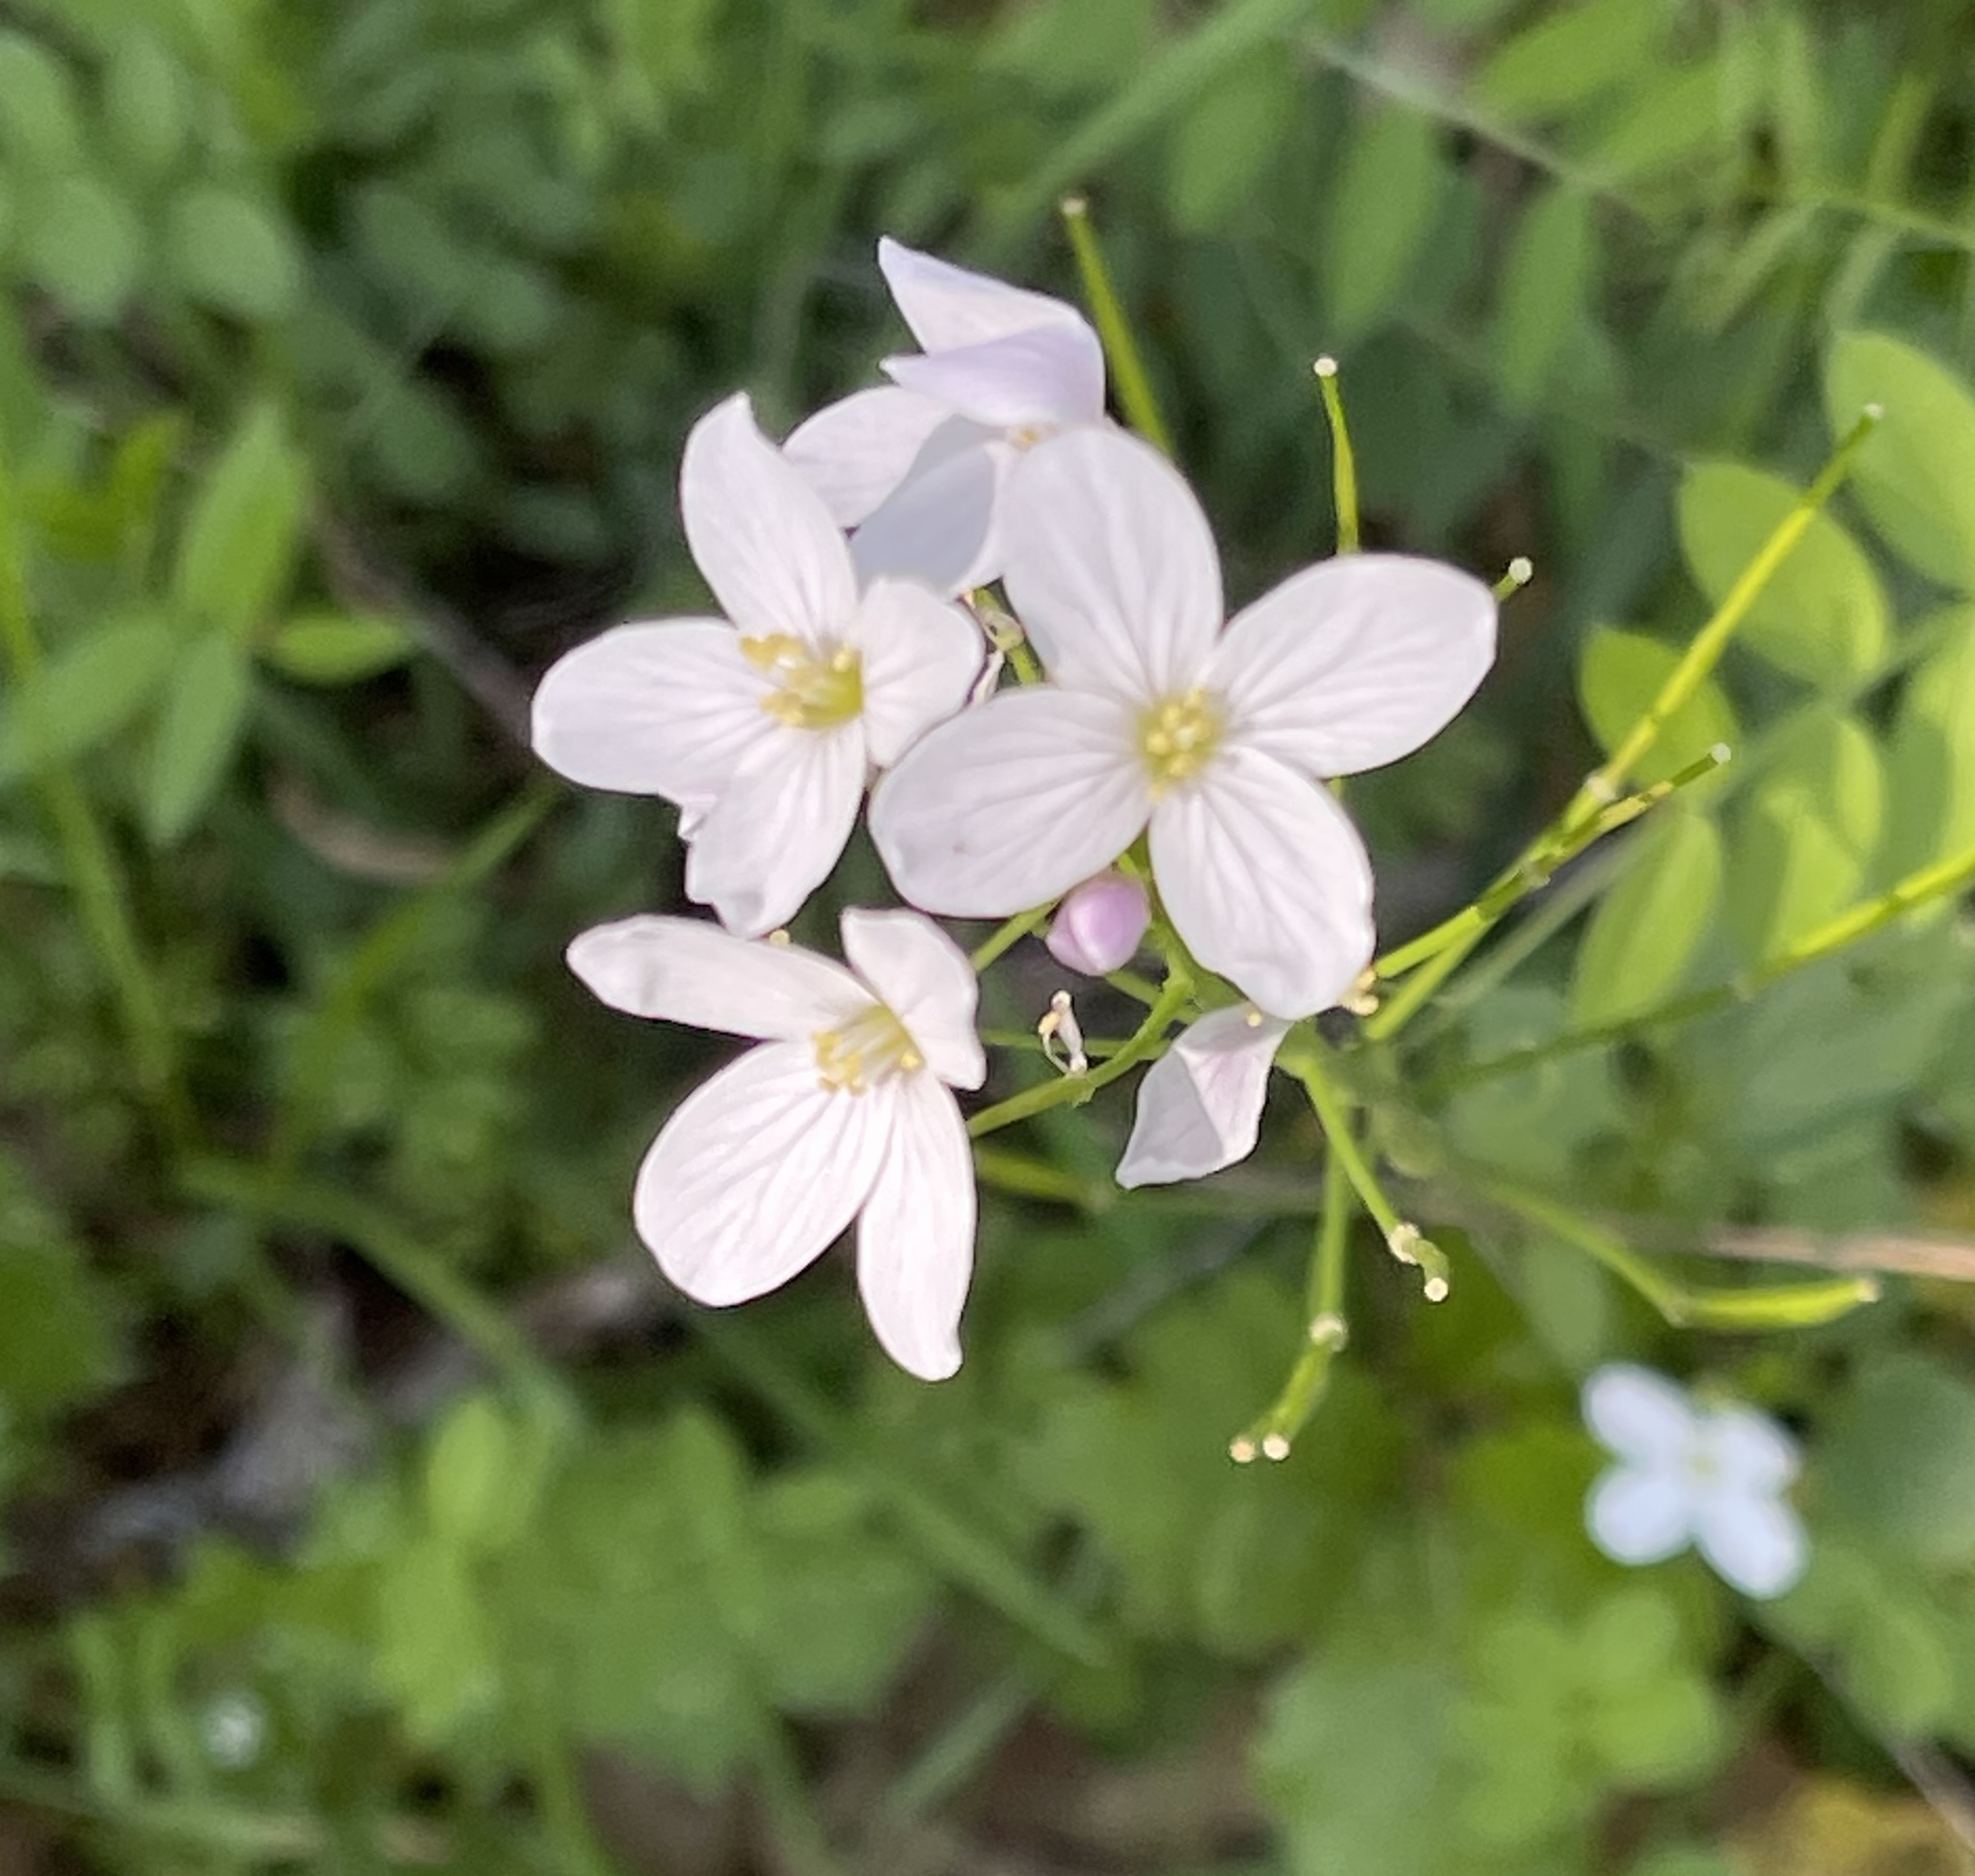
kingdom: Plantae
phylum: Tracheophyta
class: Magnoliopsida
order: Brassicales
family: Brassicaceae
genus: Cardamine
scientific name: Cardamine californica
